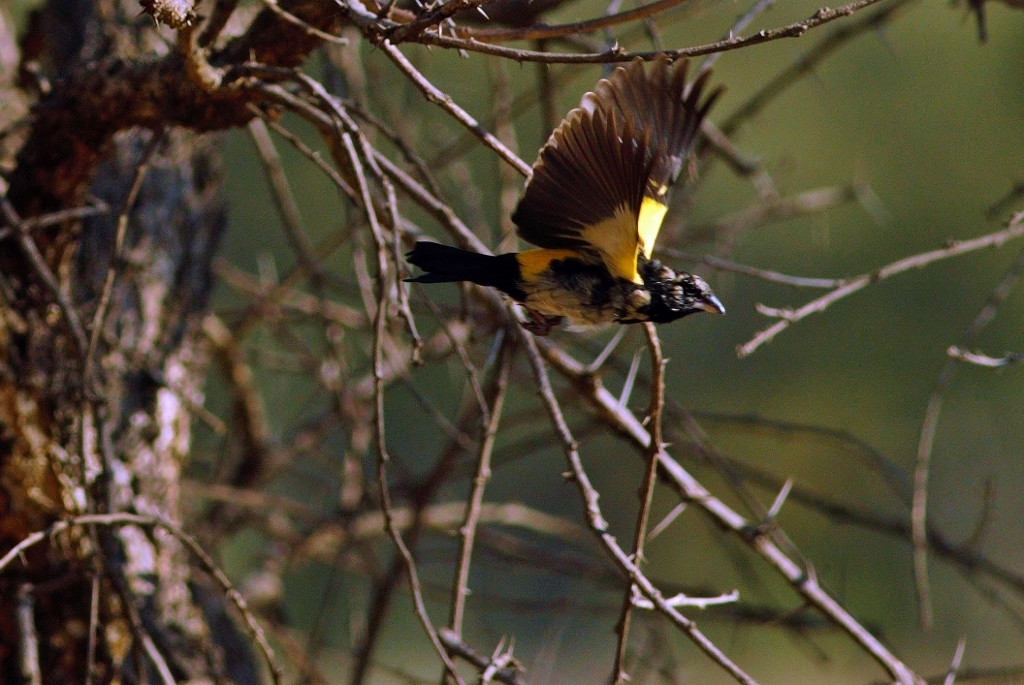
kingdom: Animalia
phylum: Chordata
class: Aves
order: Passeriformes
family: Ploceidae
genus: Euplectes
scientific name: Euplectes capensis
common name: Yellow bishop
